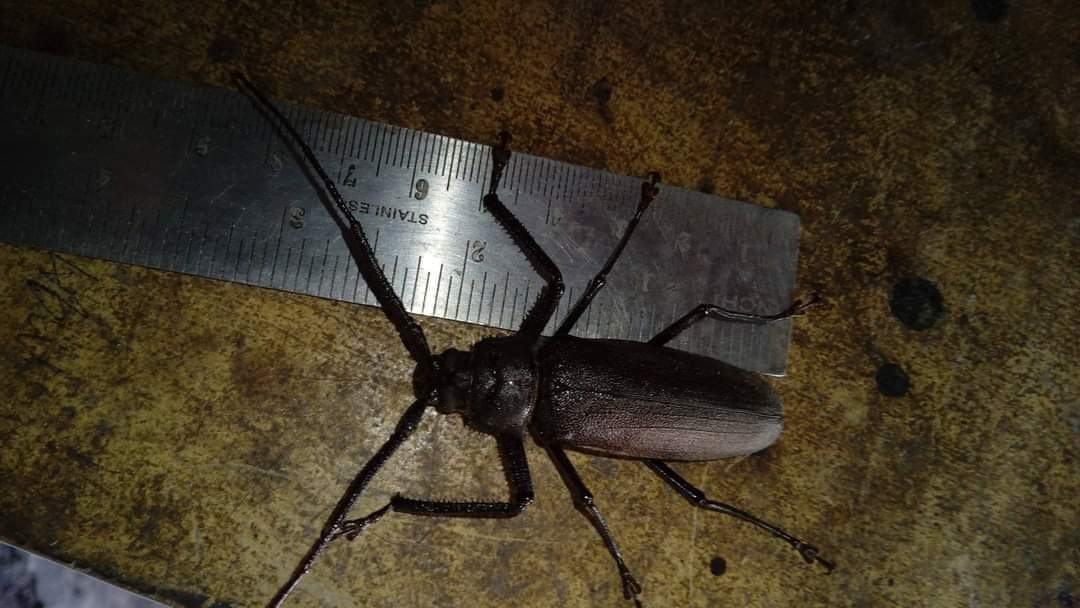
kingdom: Animalia
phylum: Arthropoda
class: Insecta
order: Coleoptera
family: Cerambycidae
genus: Anomophysis
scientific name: Anomophysis alfura
